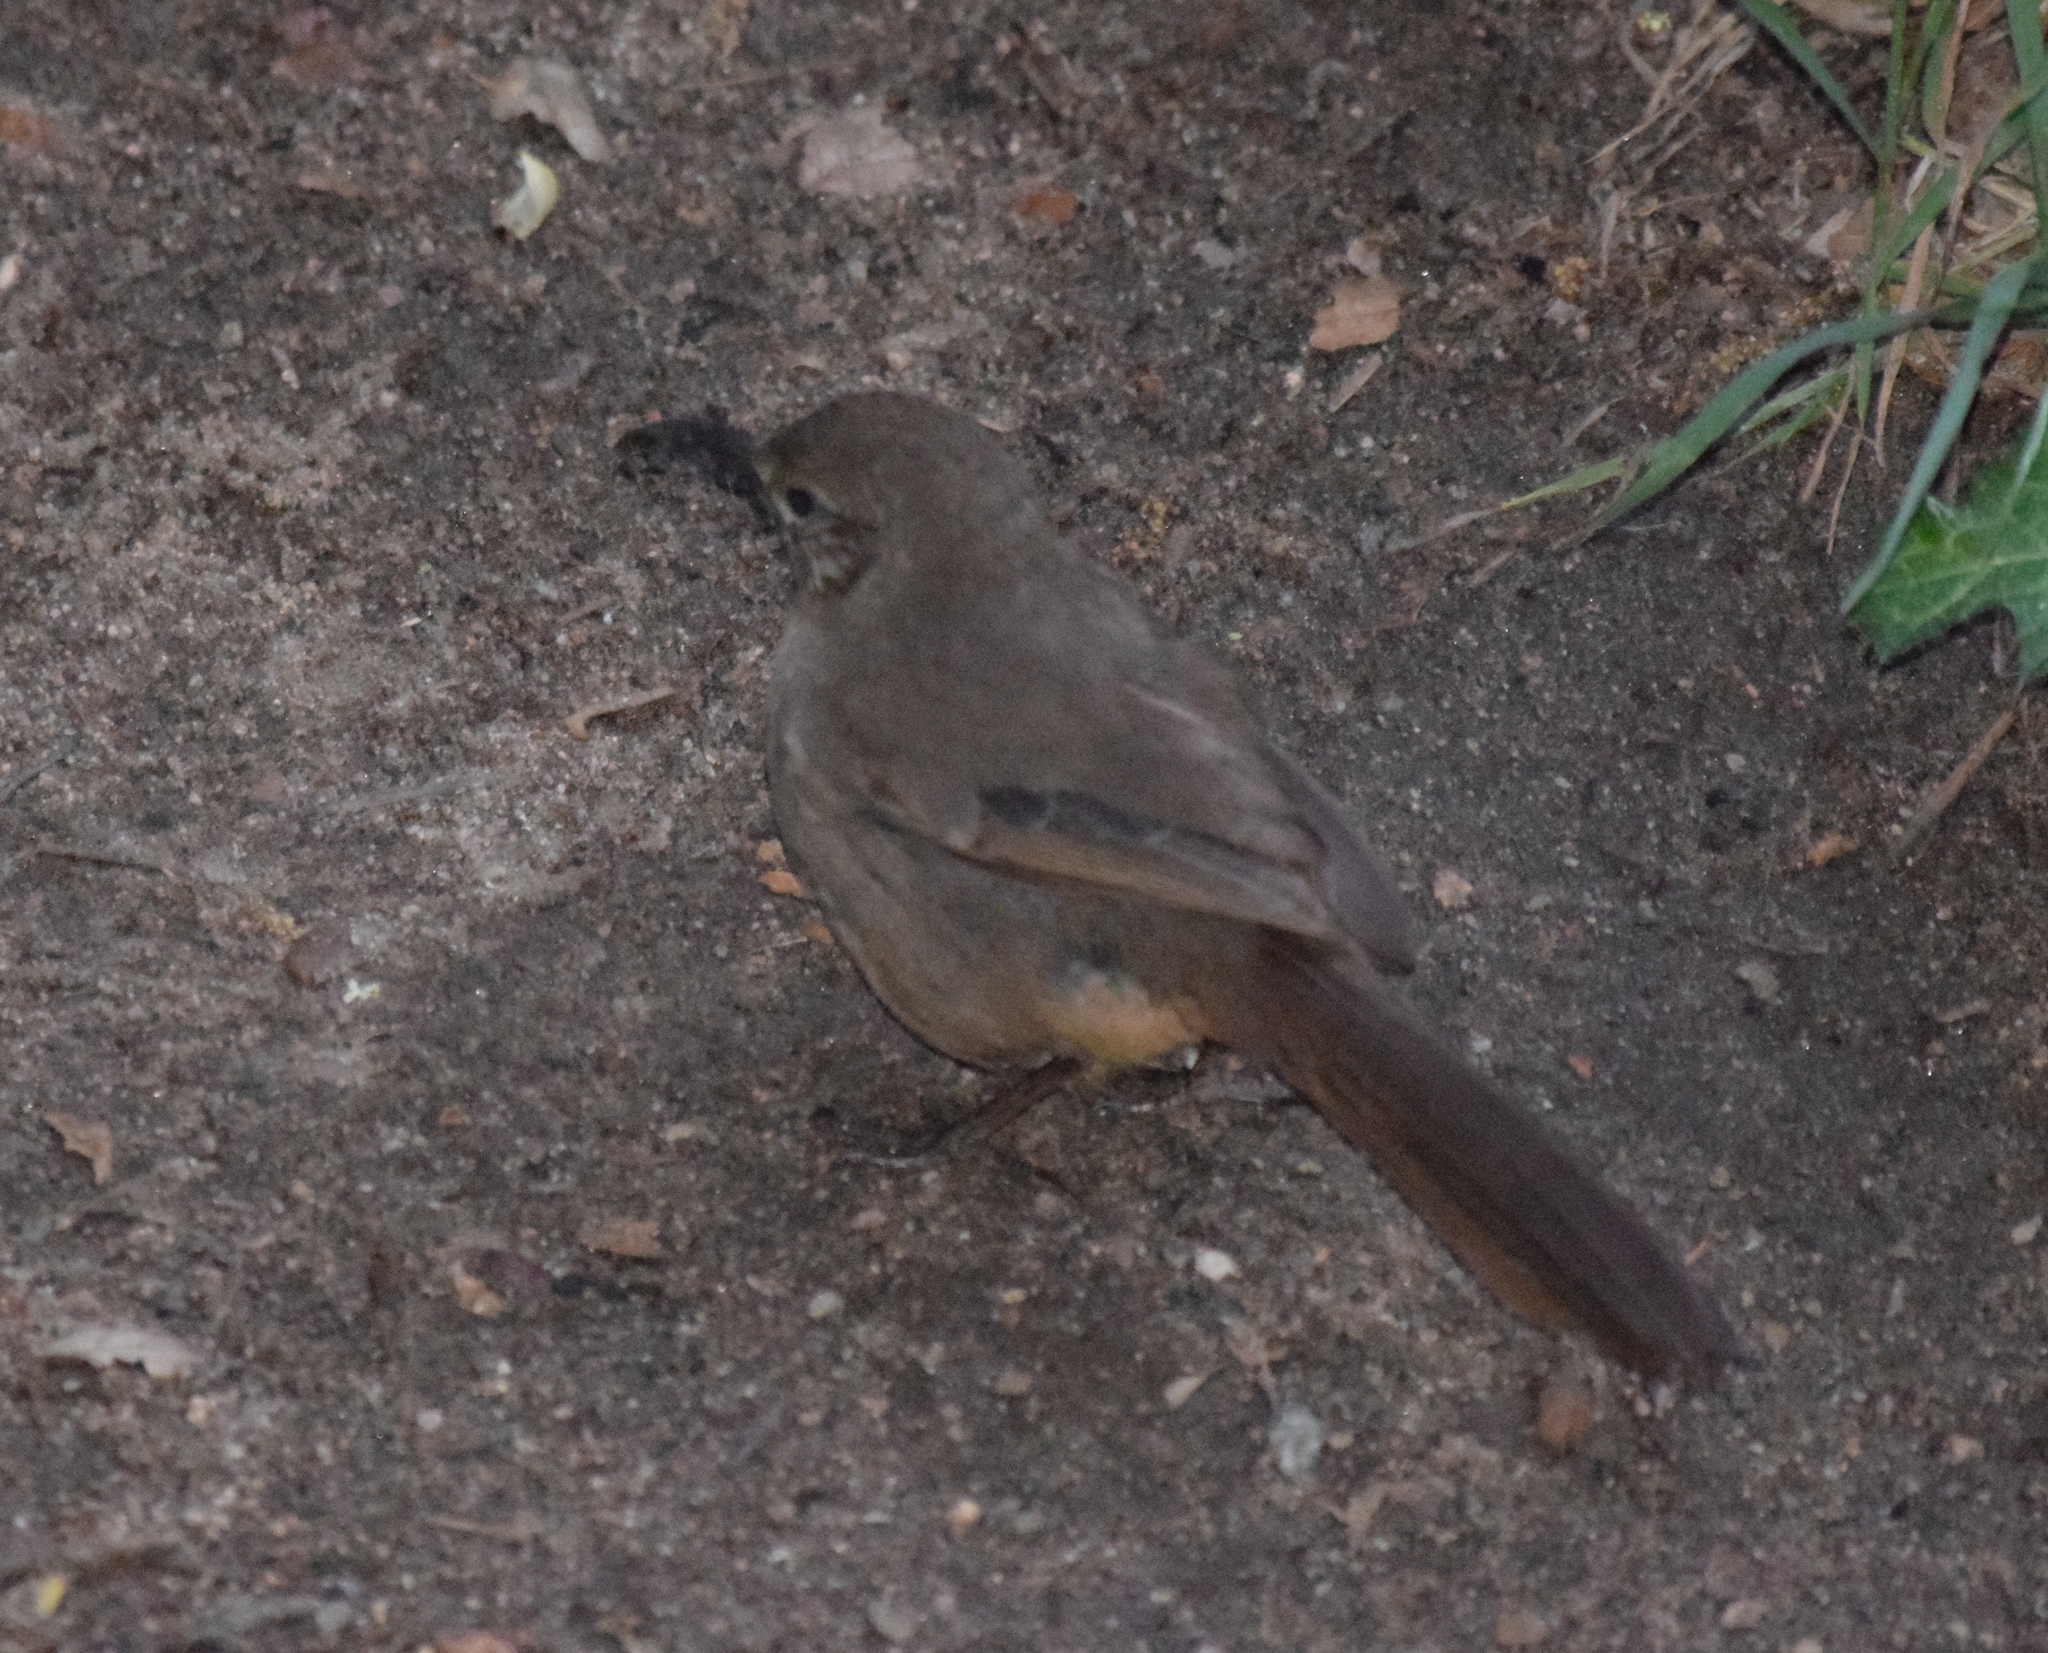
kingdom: Animalia
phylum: Chordata
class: Aves
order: Passeriformes
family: Mimidae
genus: Toxostoma
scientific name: Toxostoma redivivum
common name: California thrasher
